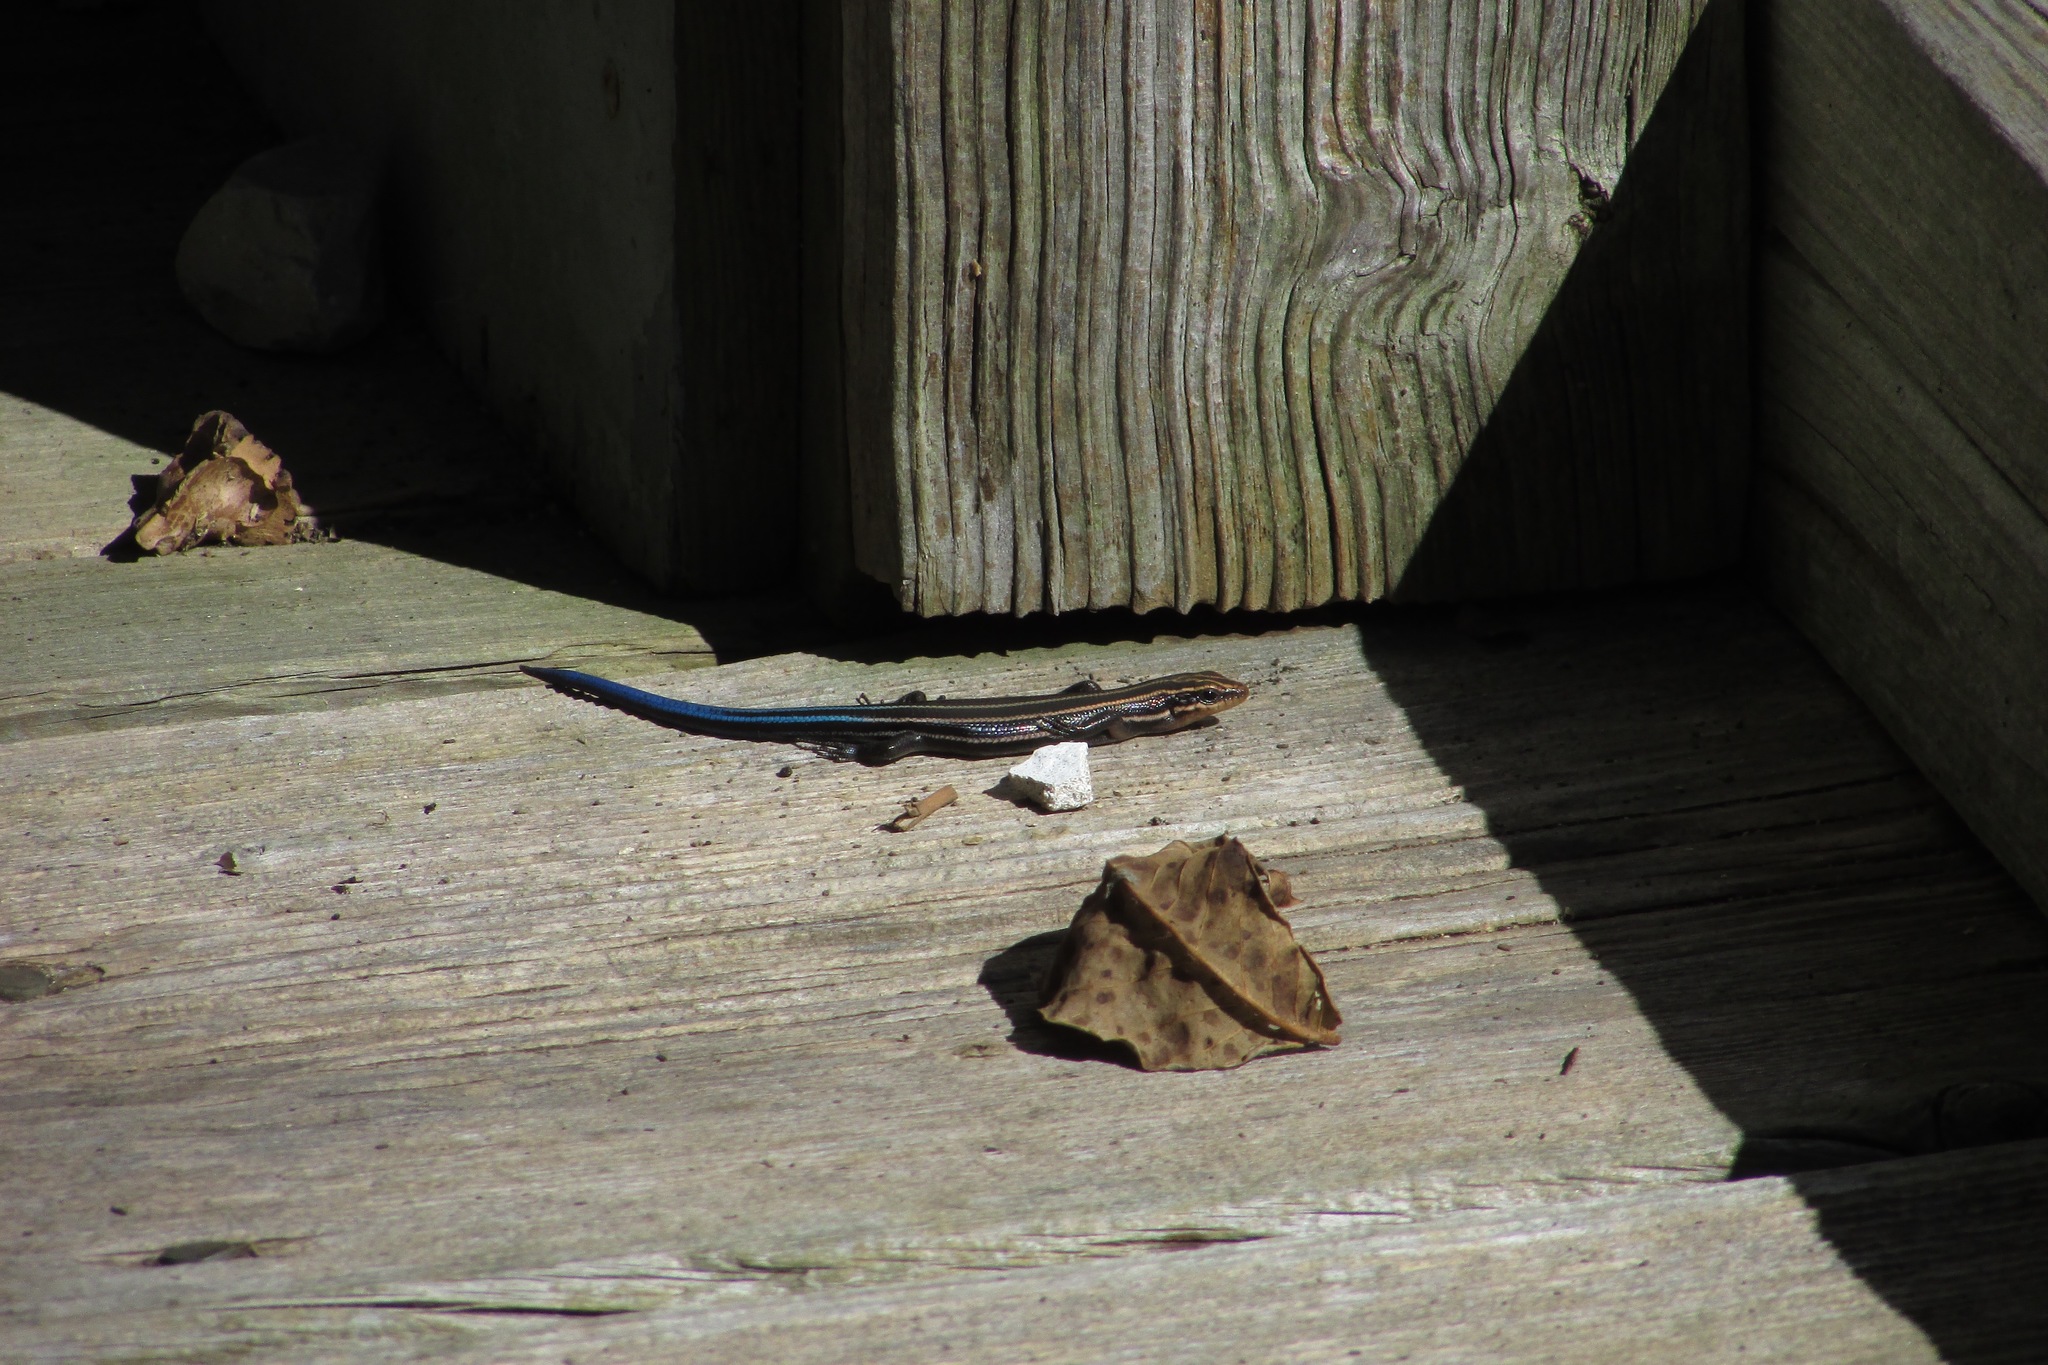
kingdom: Animalia
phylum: Chordata
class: Squamata
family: Scincidae
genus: Plestiodon
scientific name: Plestiodon fasciatus
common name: Five-lined skink
